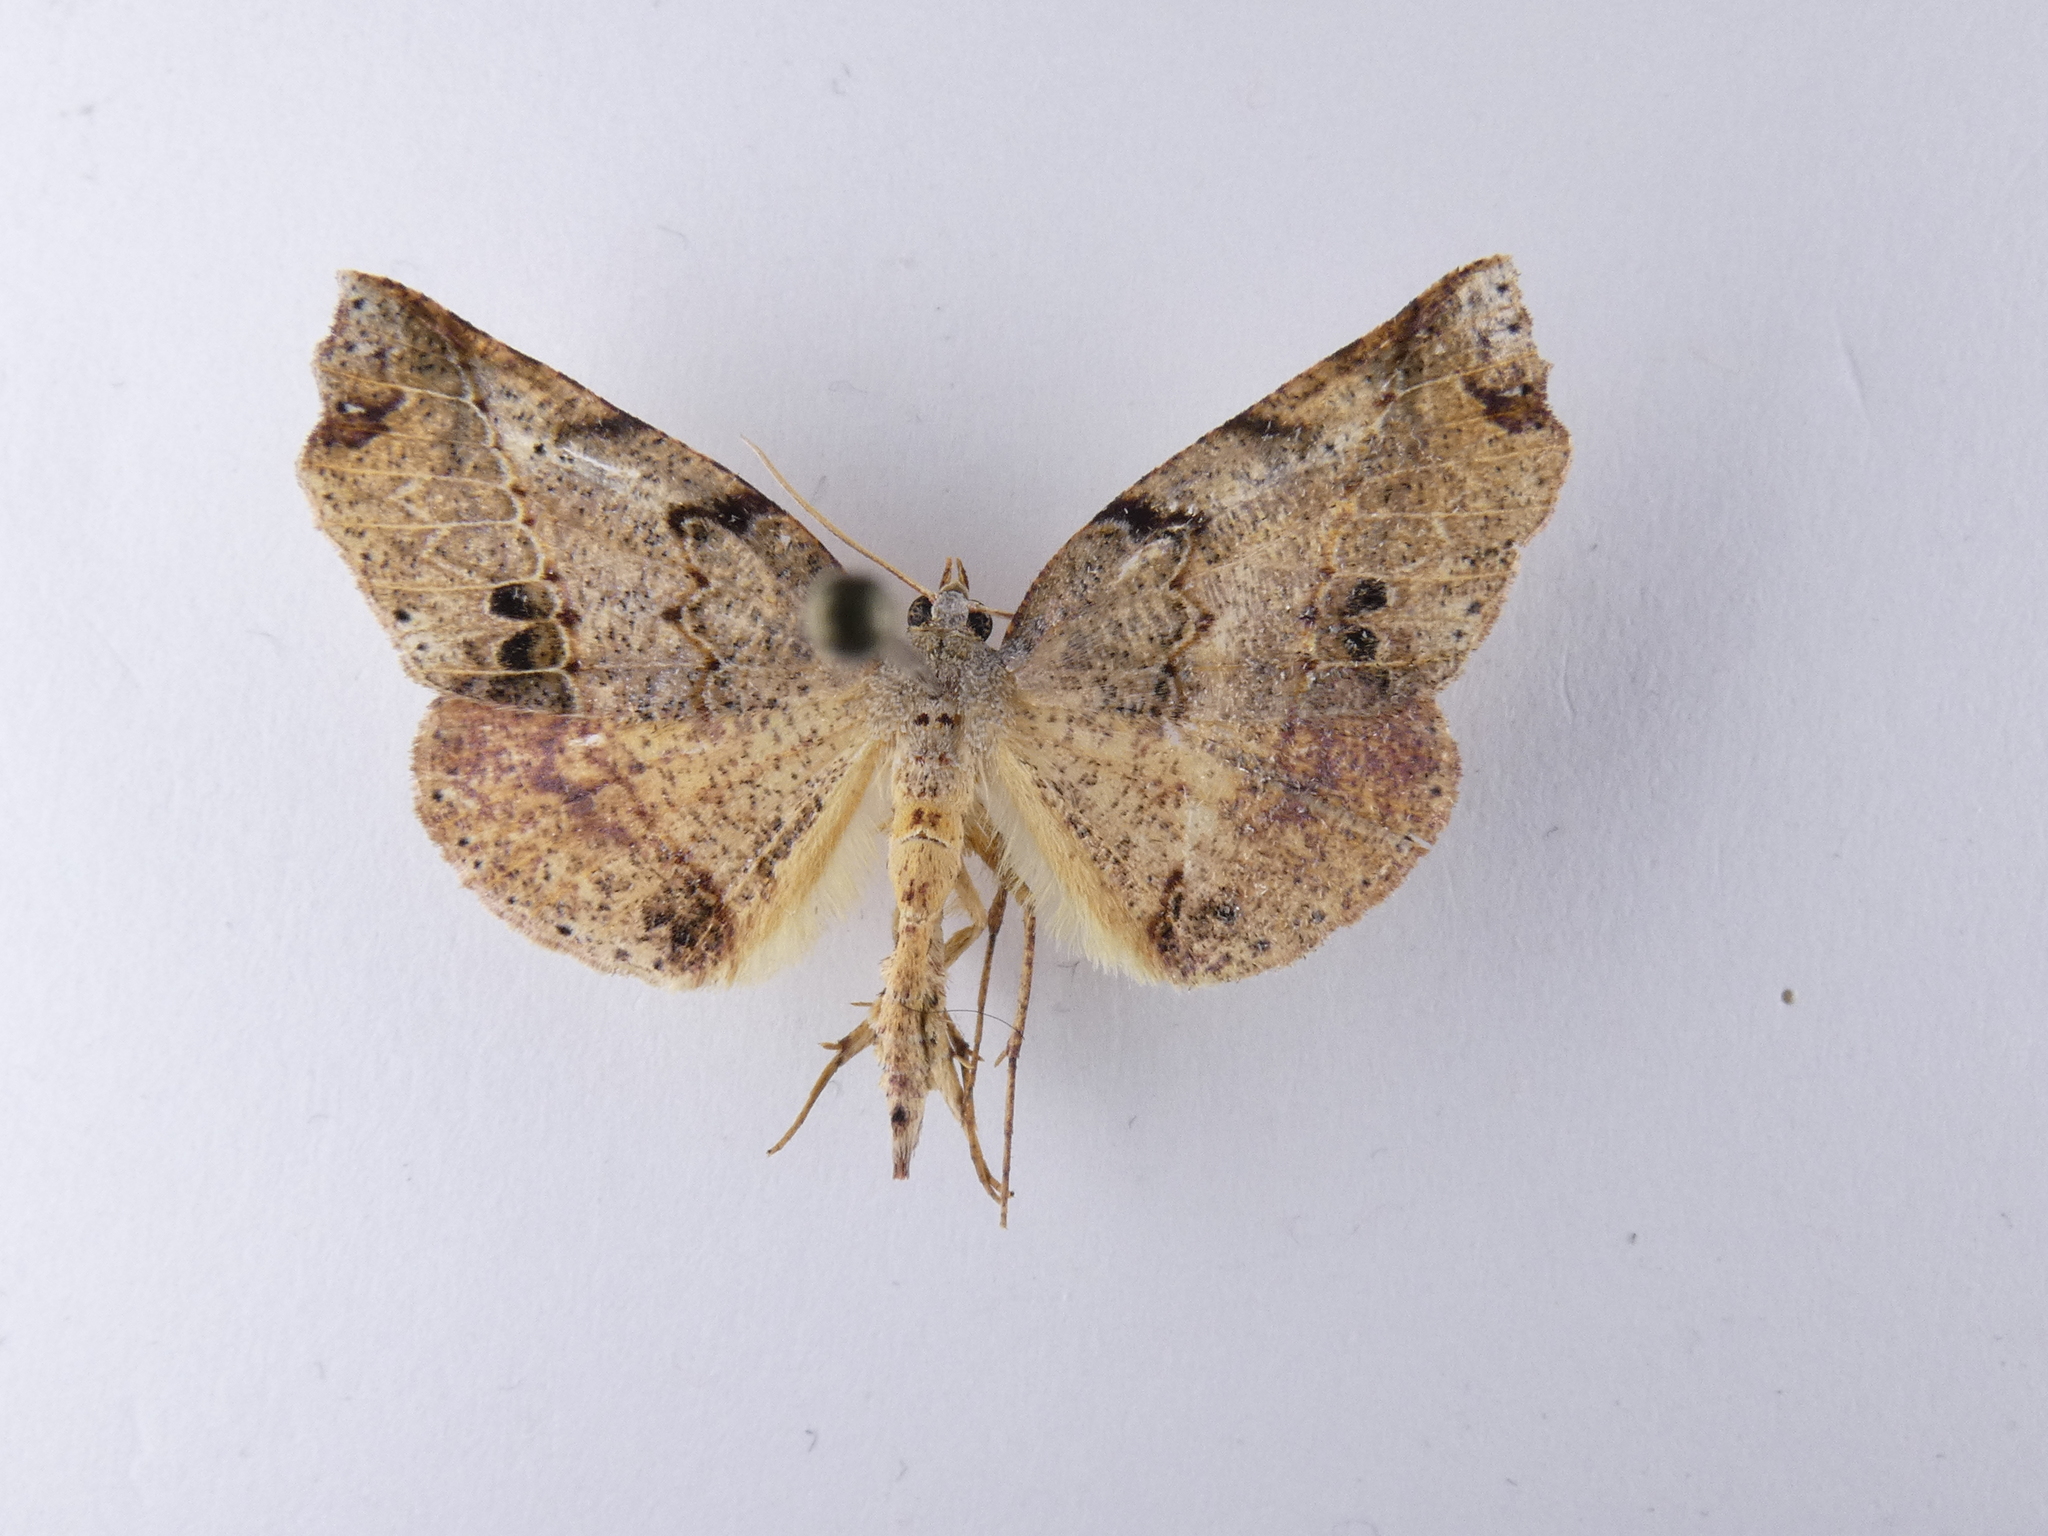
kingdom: Animalia
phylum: Arthropoda
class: Insecta
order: Lepidoptera
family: Geometridae
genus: Ischalis
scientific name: Ischalis gallaria
